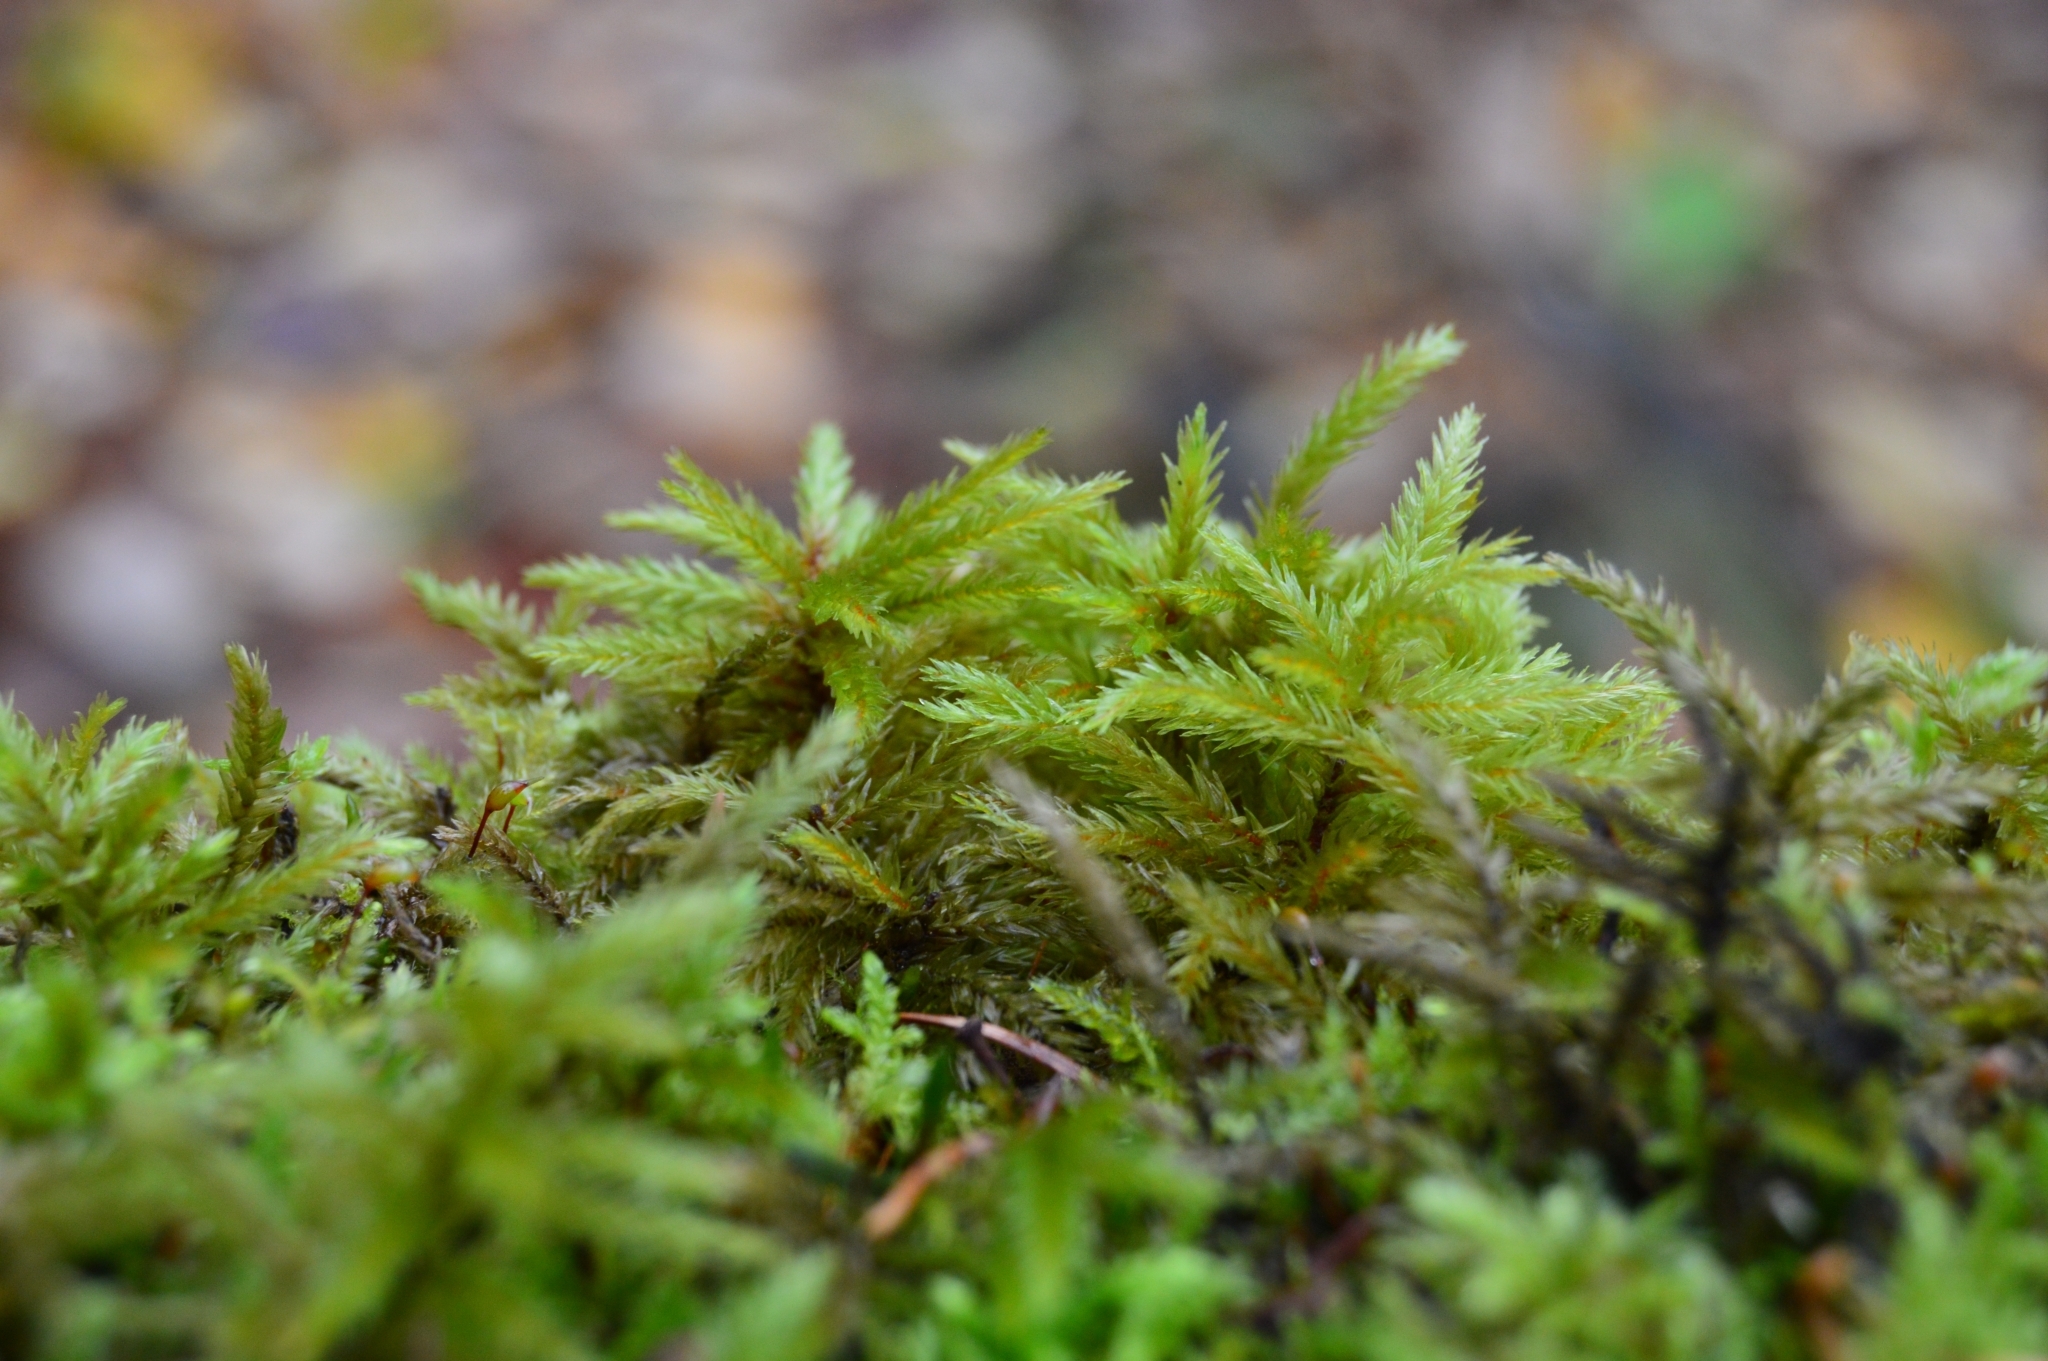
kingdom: Plantae
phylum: Bryophyta
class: Bryopsida
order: Hypnales
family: Climaciaceae
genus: Climacium
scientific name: Climacium dendroides
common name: Northern tree moss
